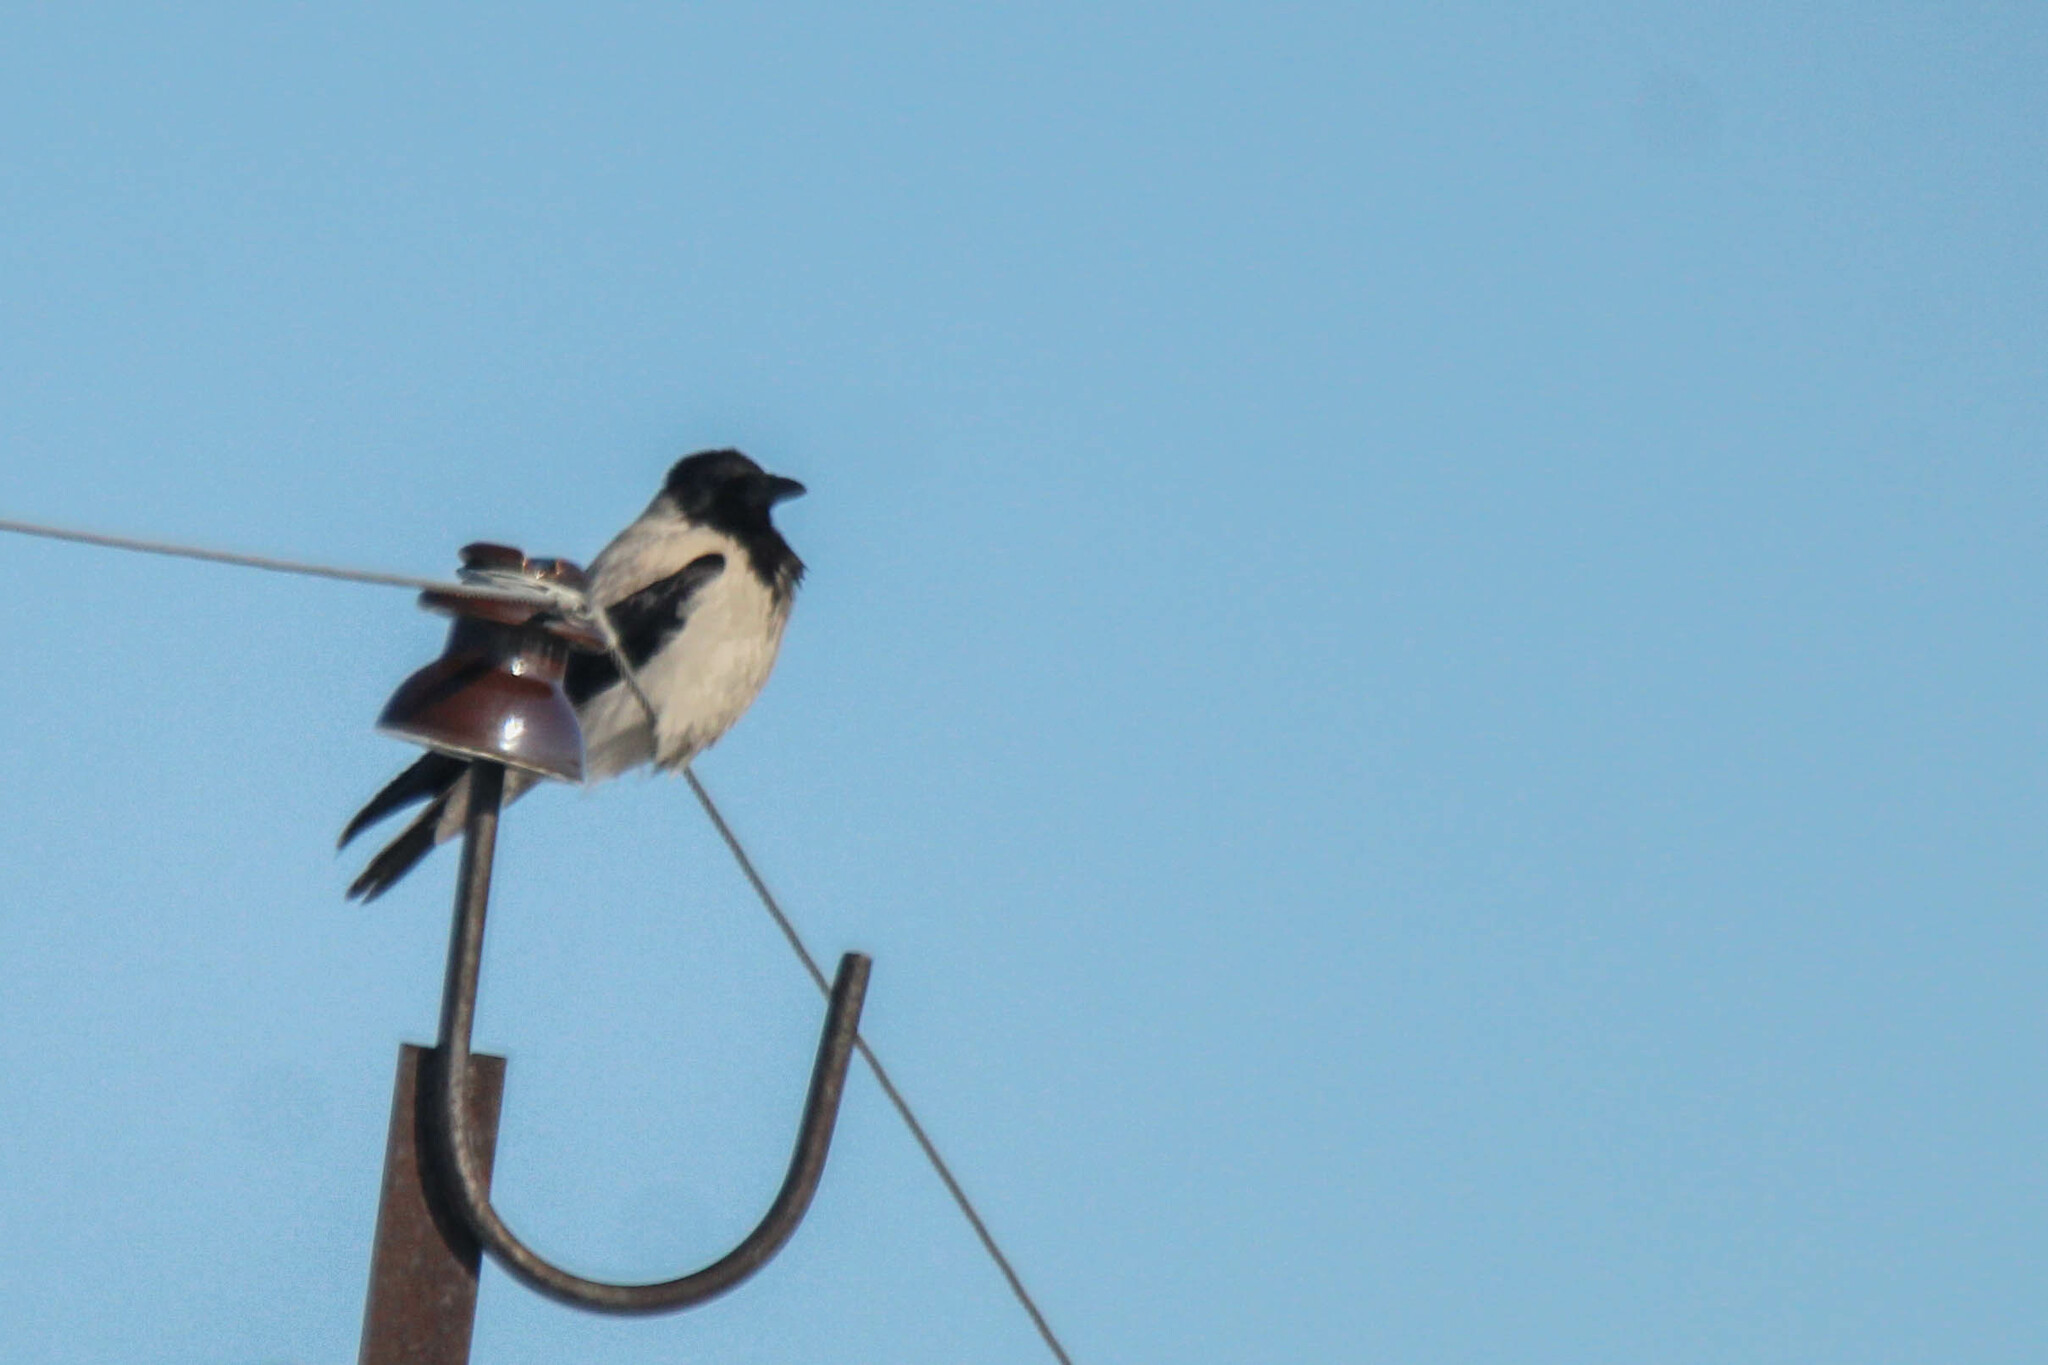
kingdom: Animalia
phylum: Chordata
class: Aves
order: Passeriformes
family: Corvidae
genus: Corvus
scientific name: Corvus cornix
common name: Hooded crow
